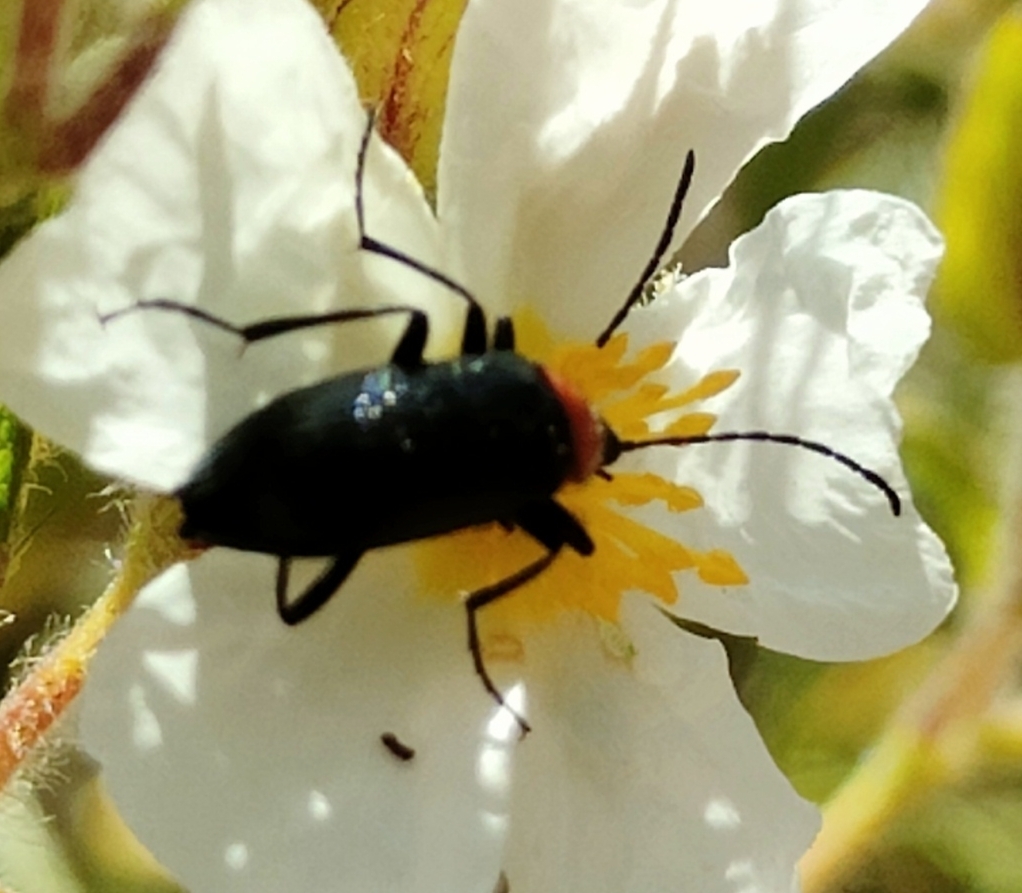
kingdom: Animalia
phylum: Arthropoda
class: Insecta
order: Coleoptera
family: Tenebrionidae
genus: Heliotaurus
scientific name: Heliotaurus ruficollis
